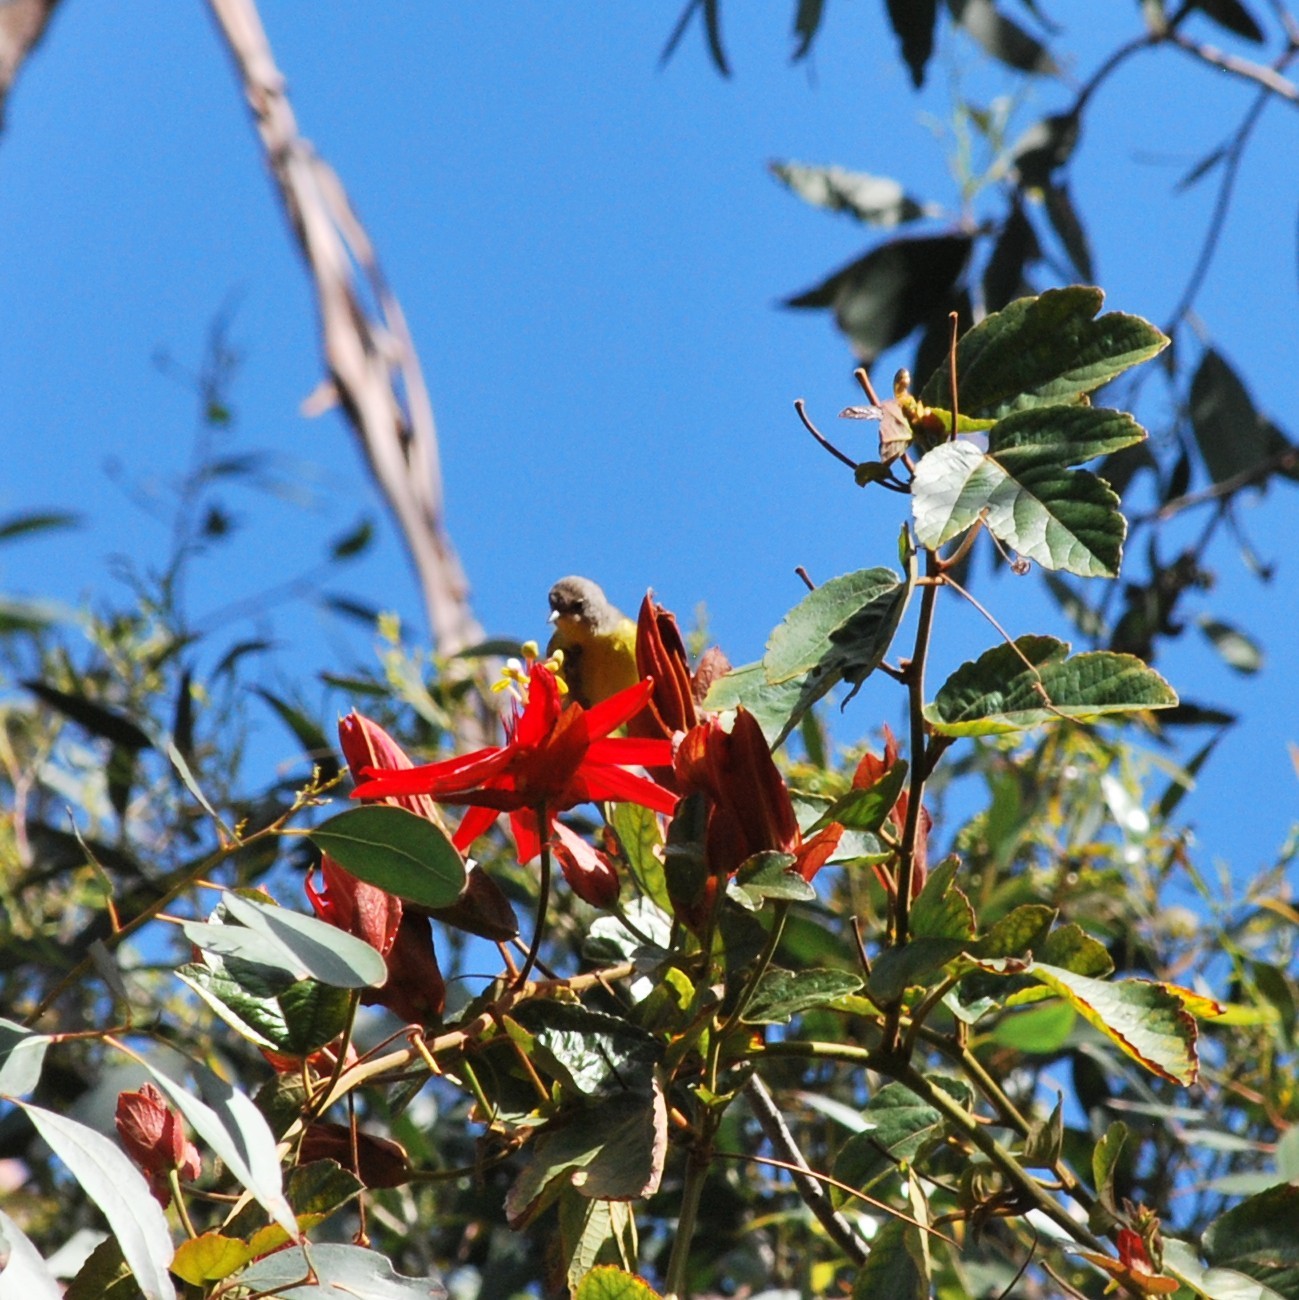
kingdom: Animalia
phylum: Chordata
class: Aves
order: Passeriformes
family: Parulidae
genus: Leiothlypis
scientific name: Leiothlypis ruficapilla
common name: Nashville warbler
